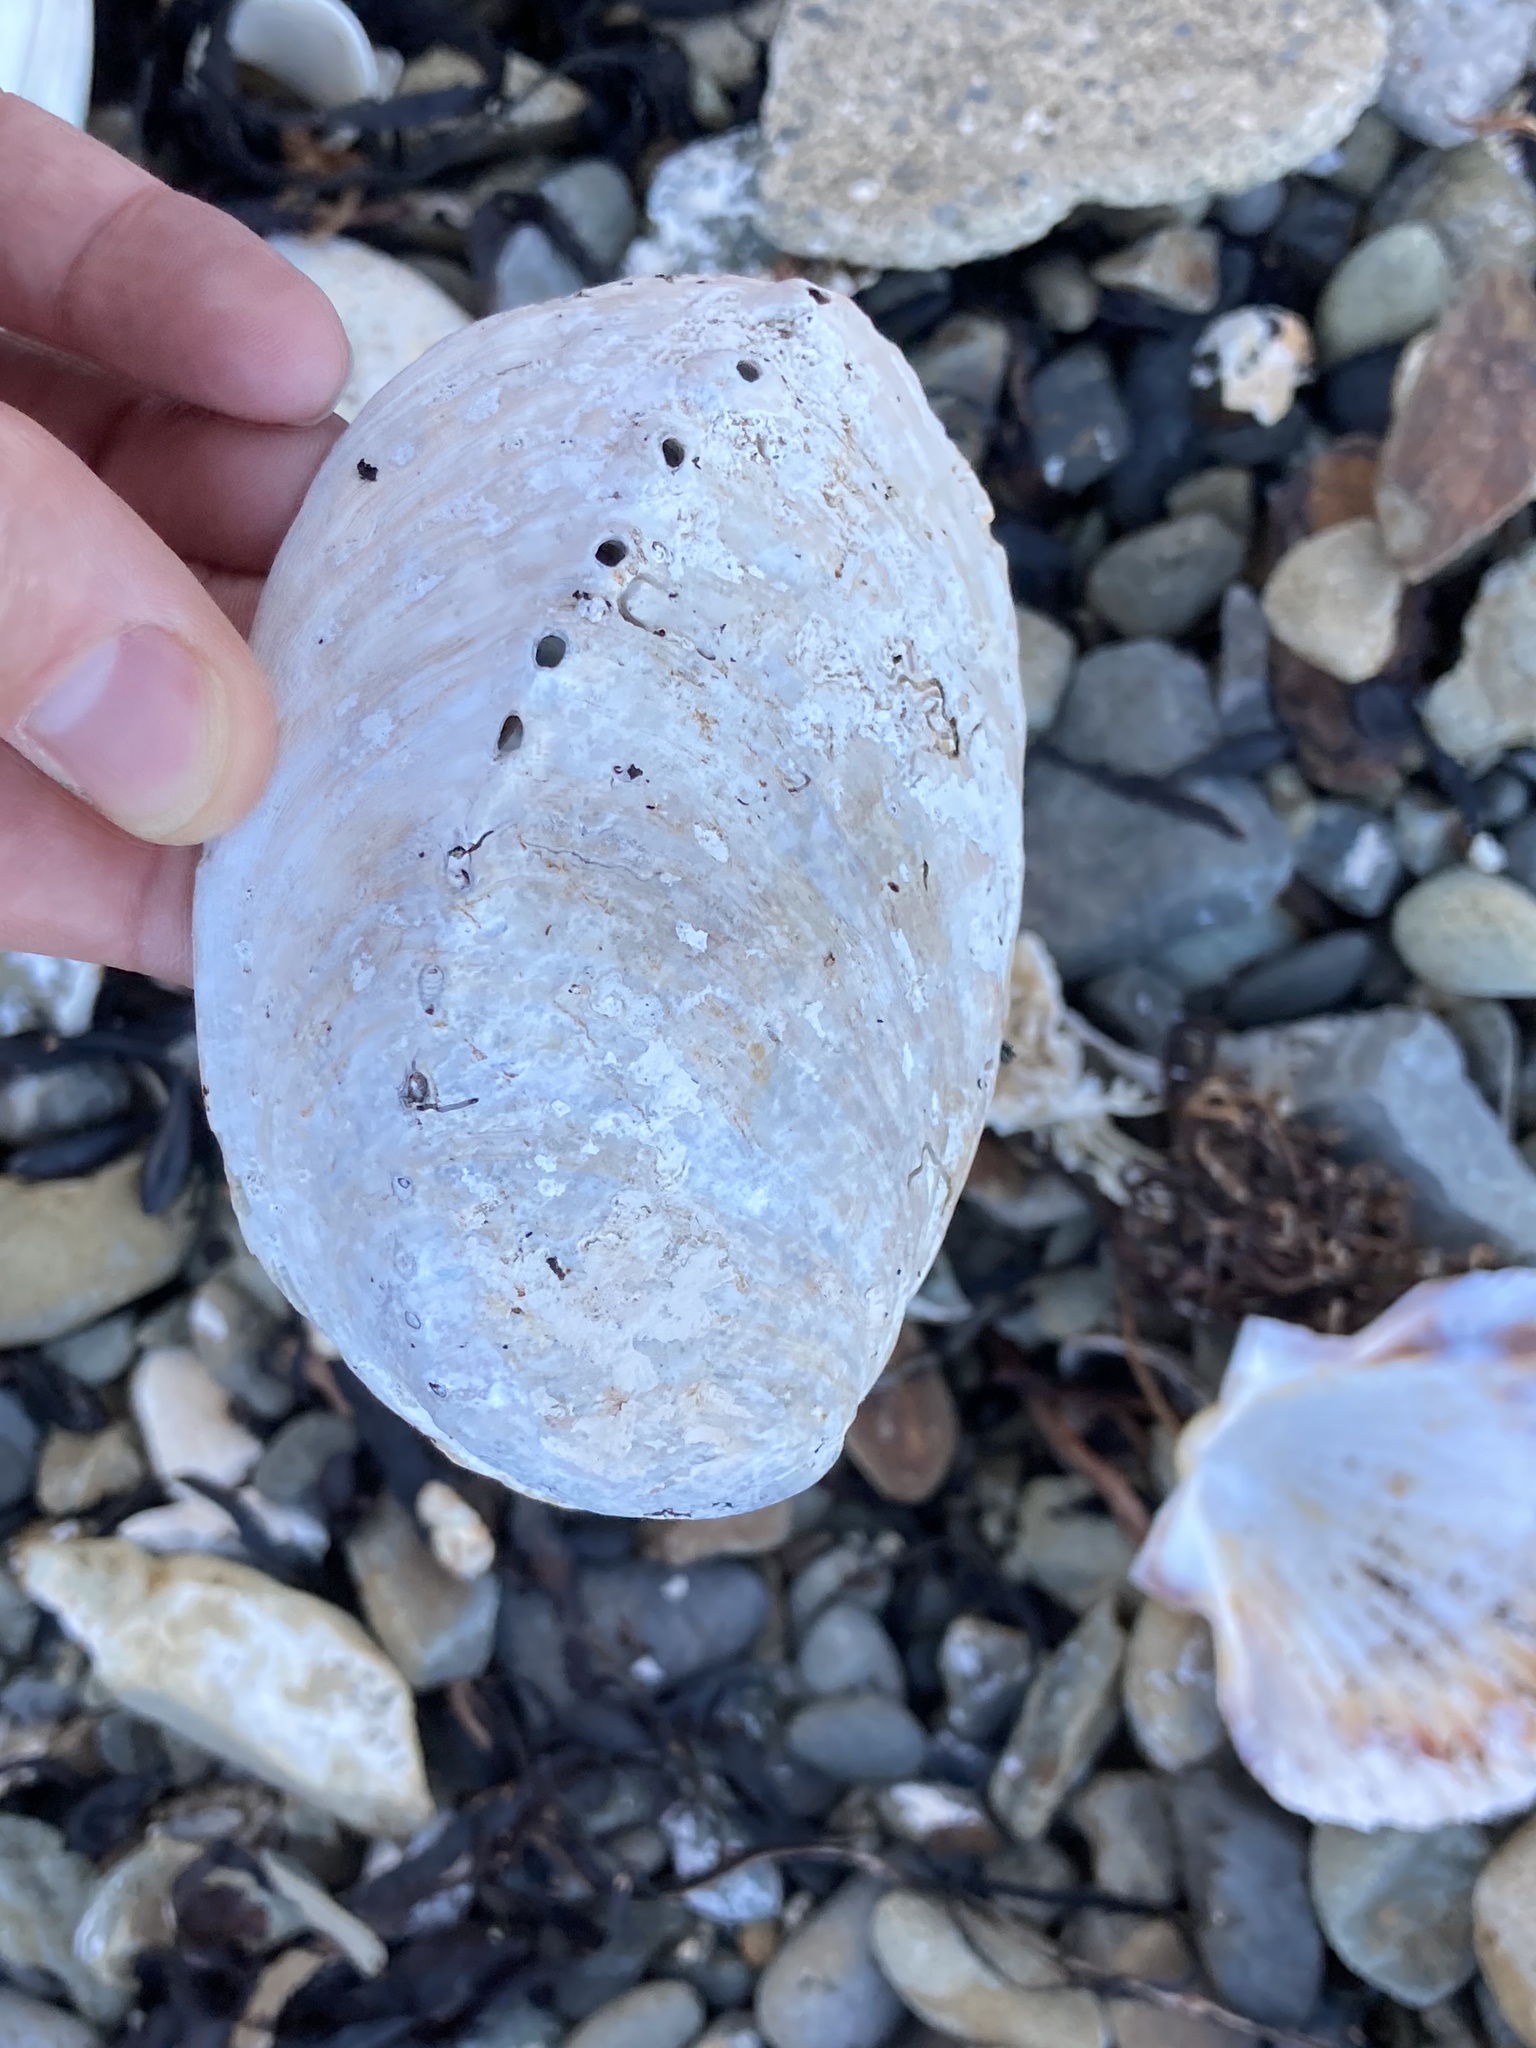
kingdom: Animalia
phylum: Mollusca
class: Gastropoda
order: Lepetellida
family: Haliotidae
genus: Haliotis
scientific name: Haliotis iris
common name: Abalone
